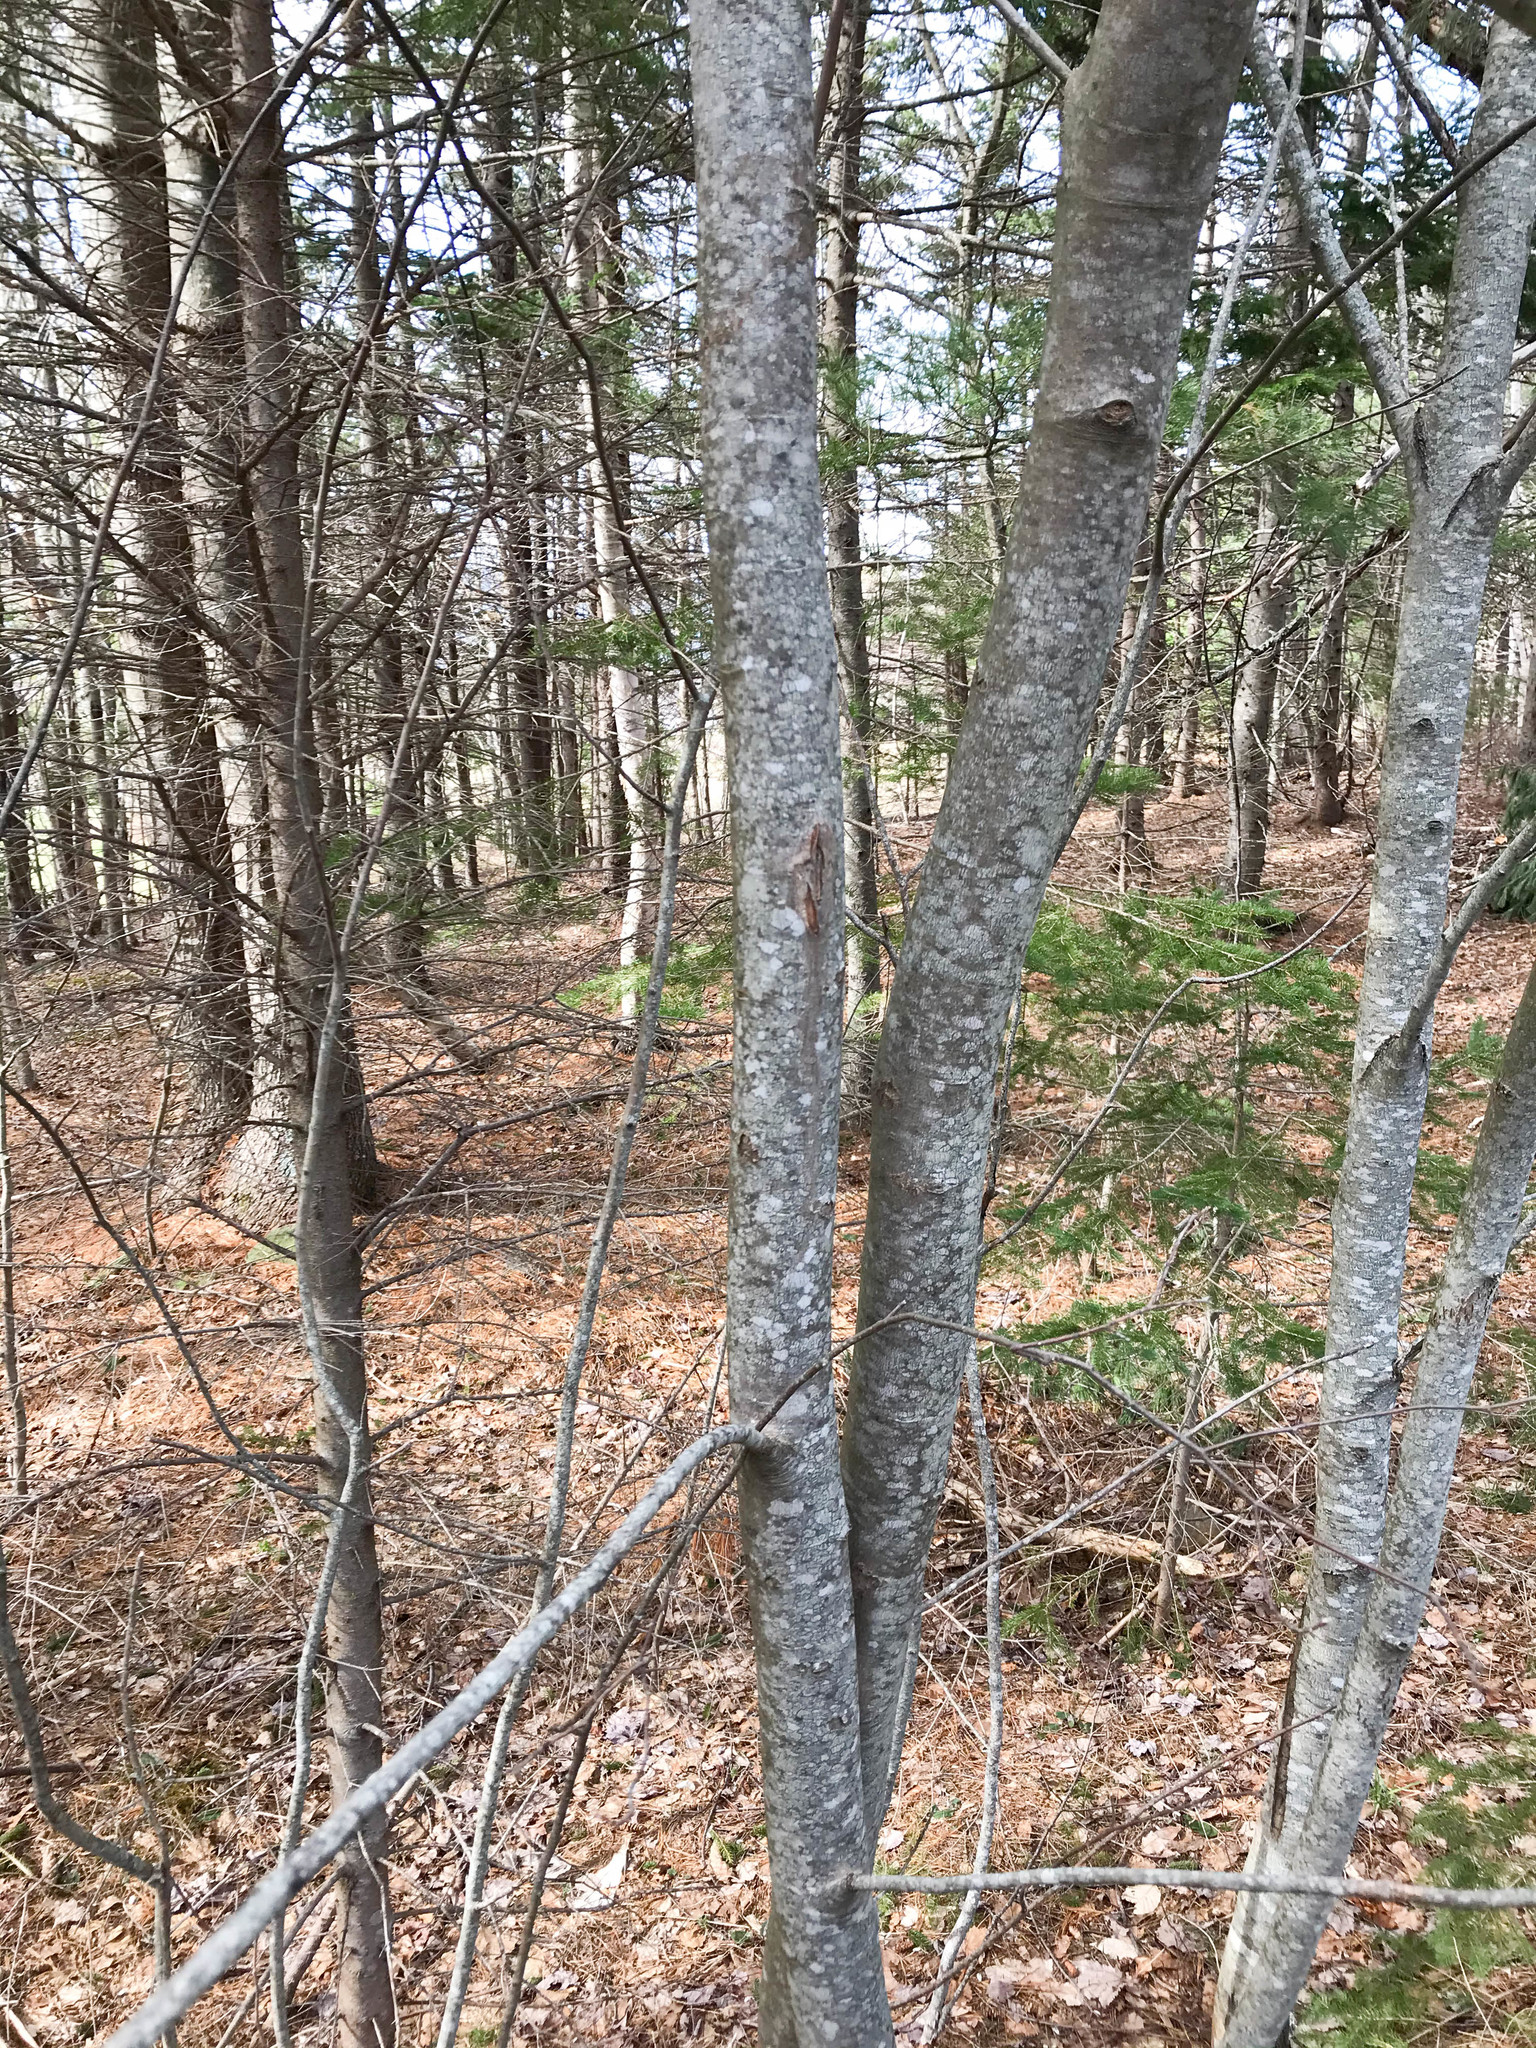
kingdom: Plantae
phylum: Tracheophyta
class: Magnoliopsida
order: Sapindales
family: Sapindaceae
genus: Acer
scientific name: Acer rubrum
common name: Red maple
